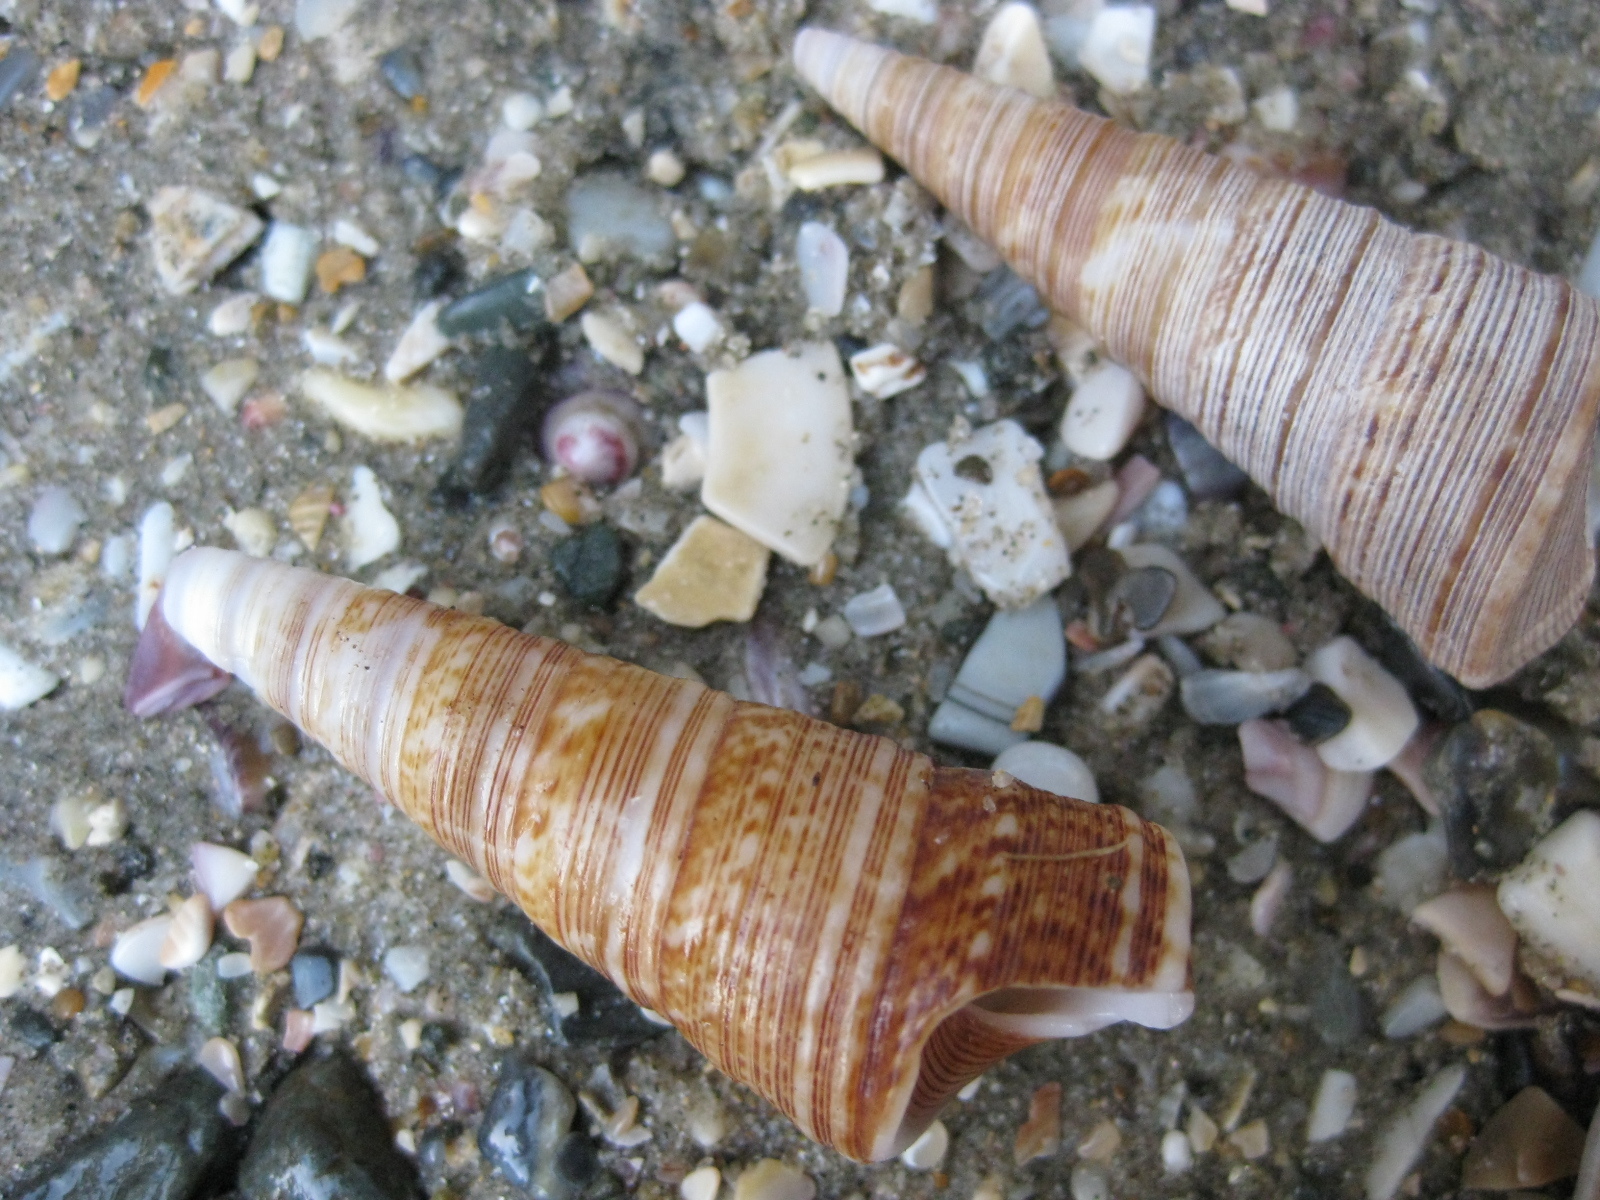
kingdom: Animalia
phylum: Mollusca
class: Gastropoda
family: Turritellidae
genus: Maoricolpus
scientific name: Maoricolpus roseus
